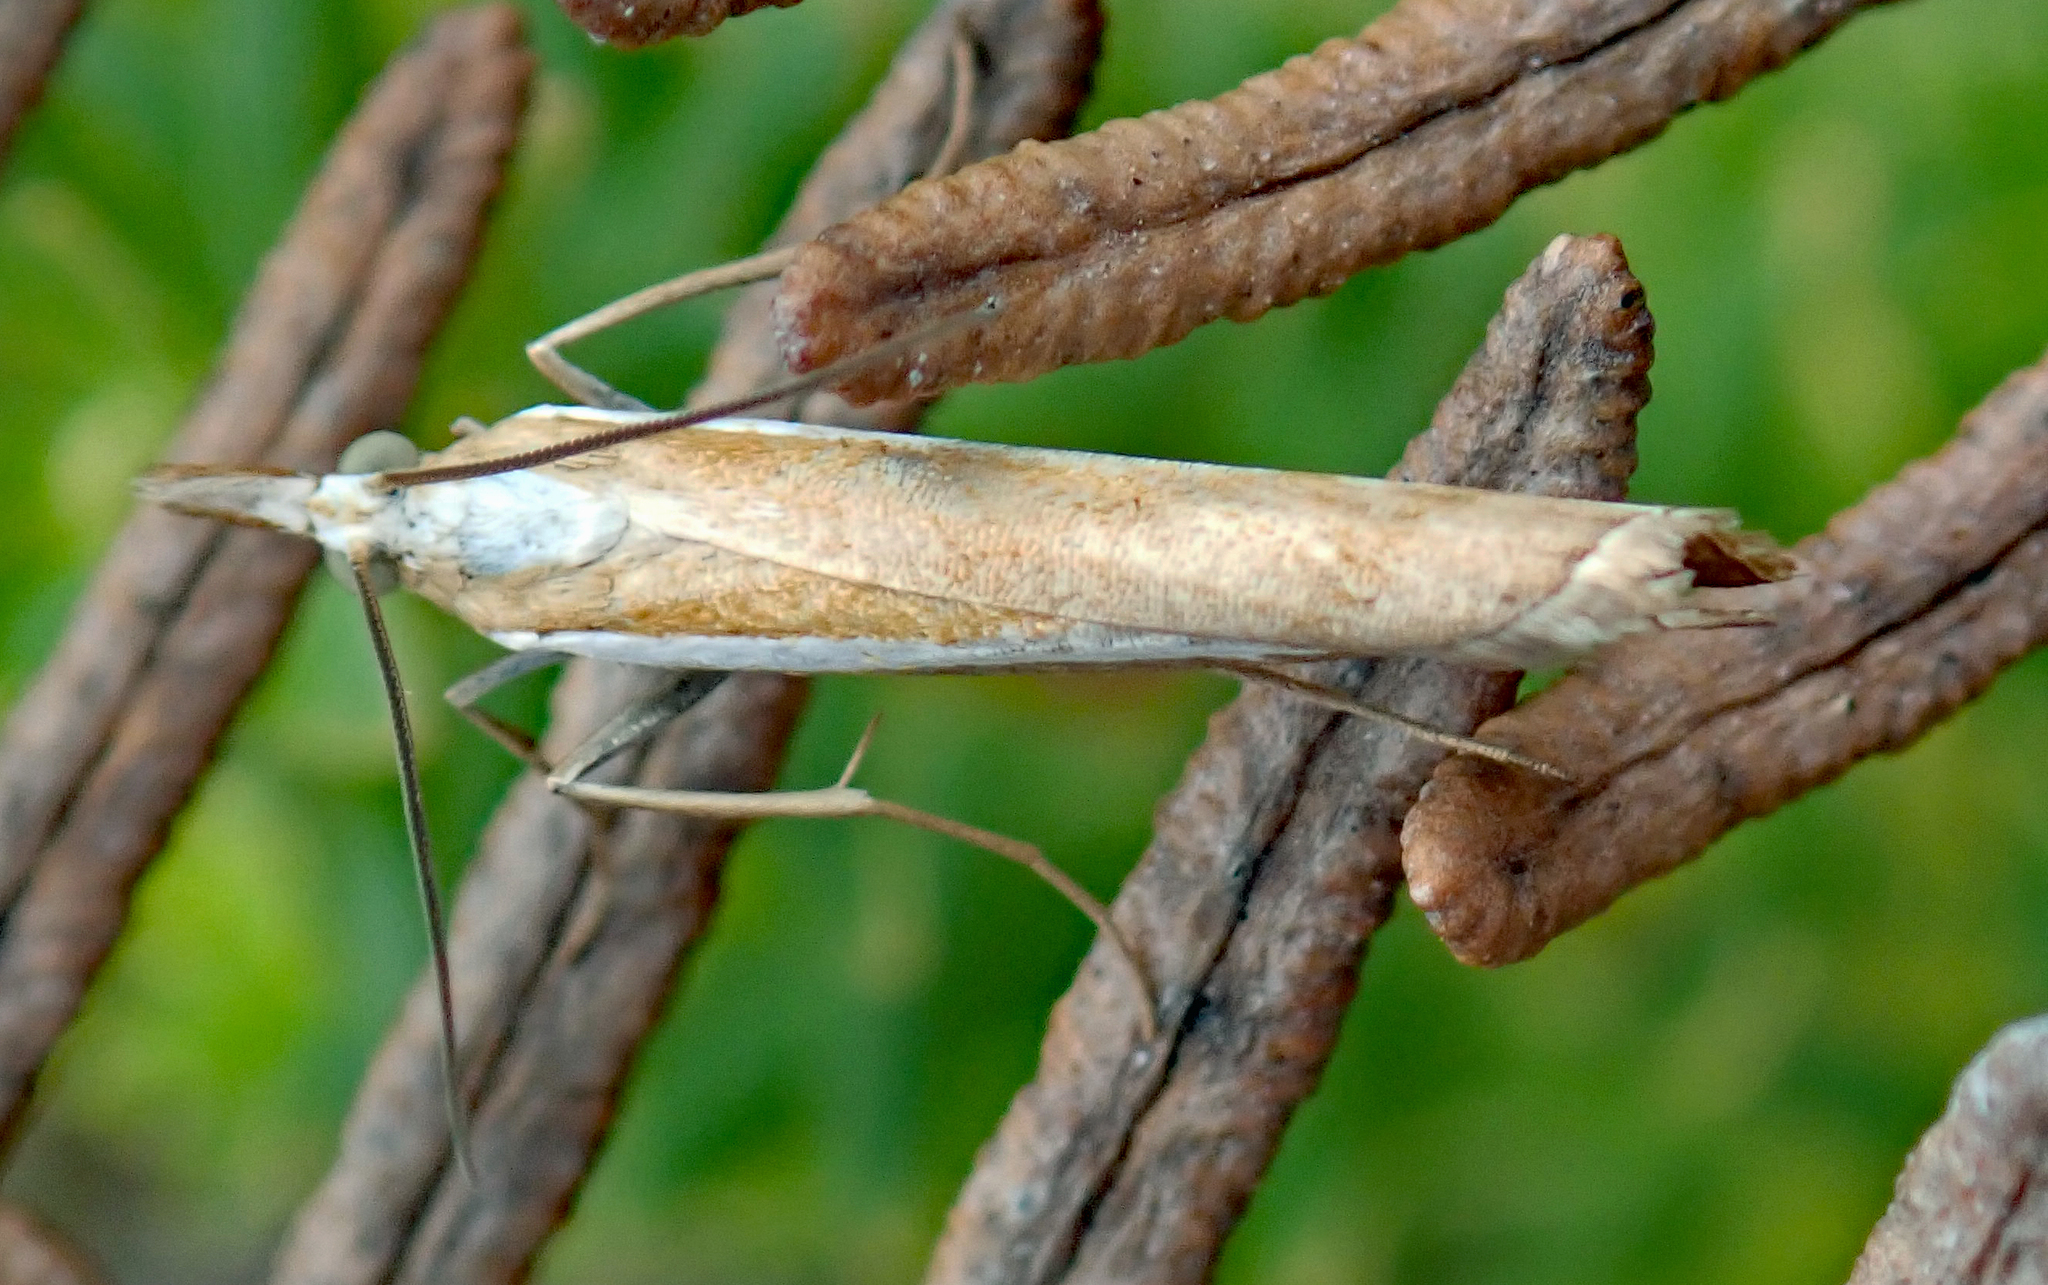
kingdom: Animalia
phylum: Arthropoda
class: Insecta
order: Lepidoptera
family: Crambidae
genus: Orocrambus
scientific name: Orocrambus vittellus
